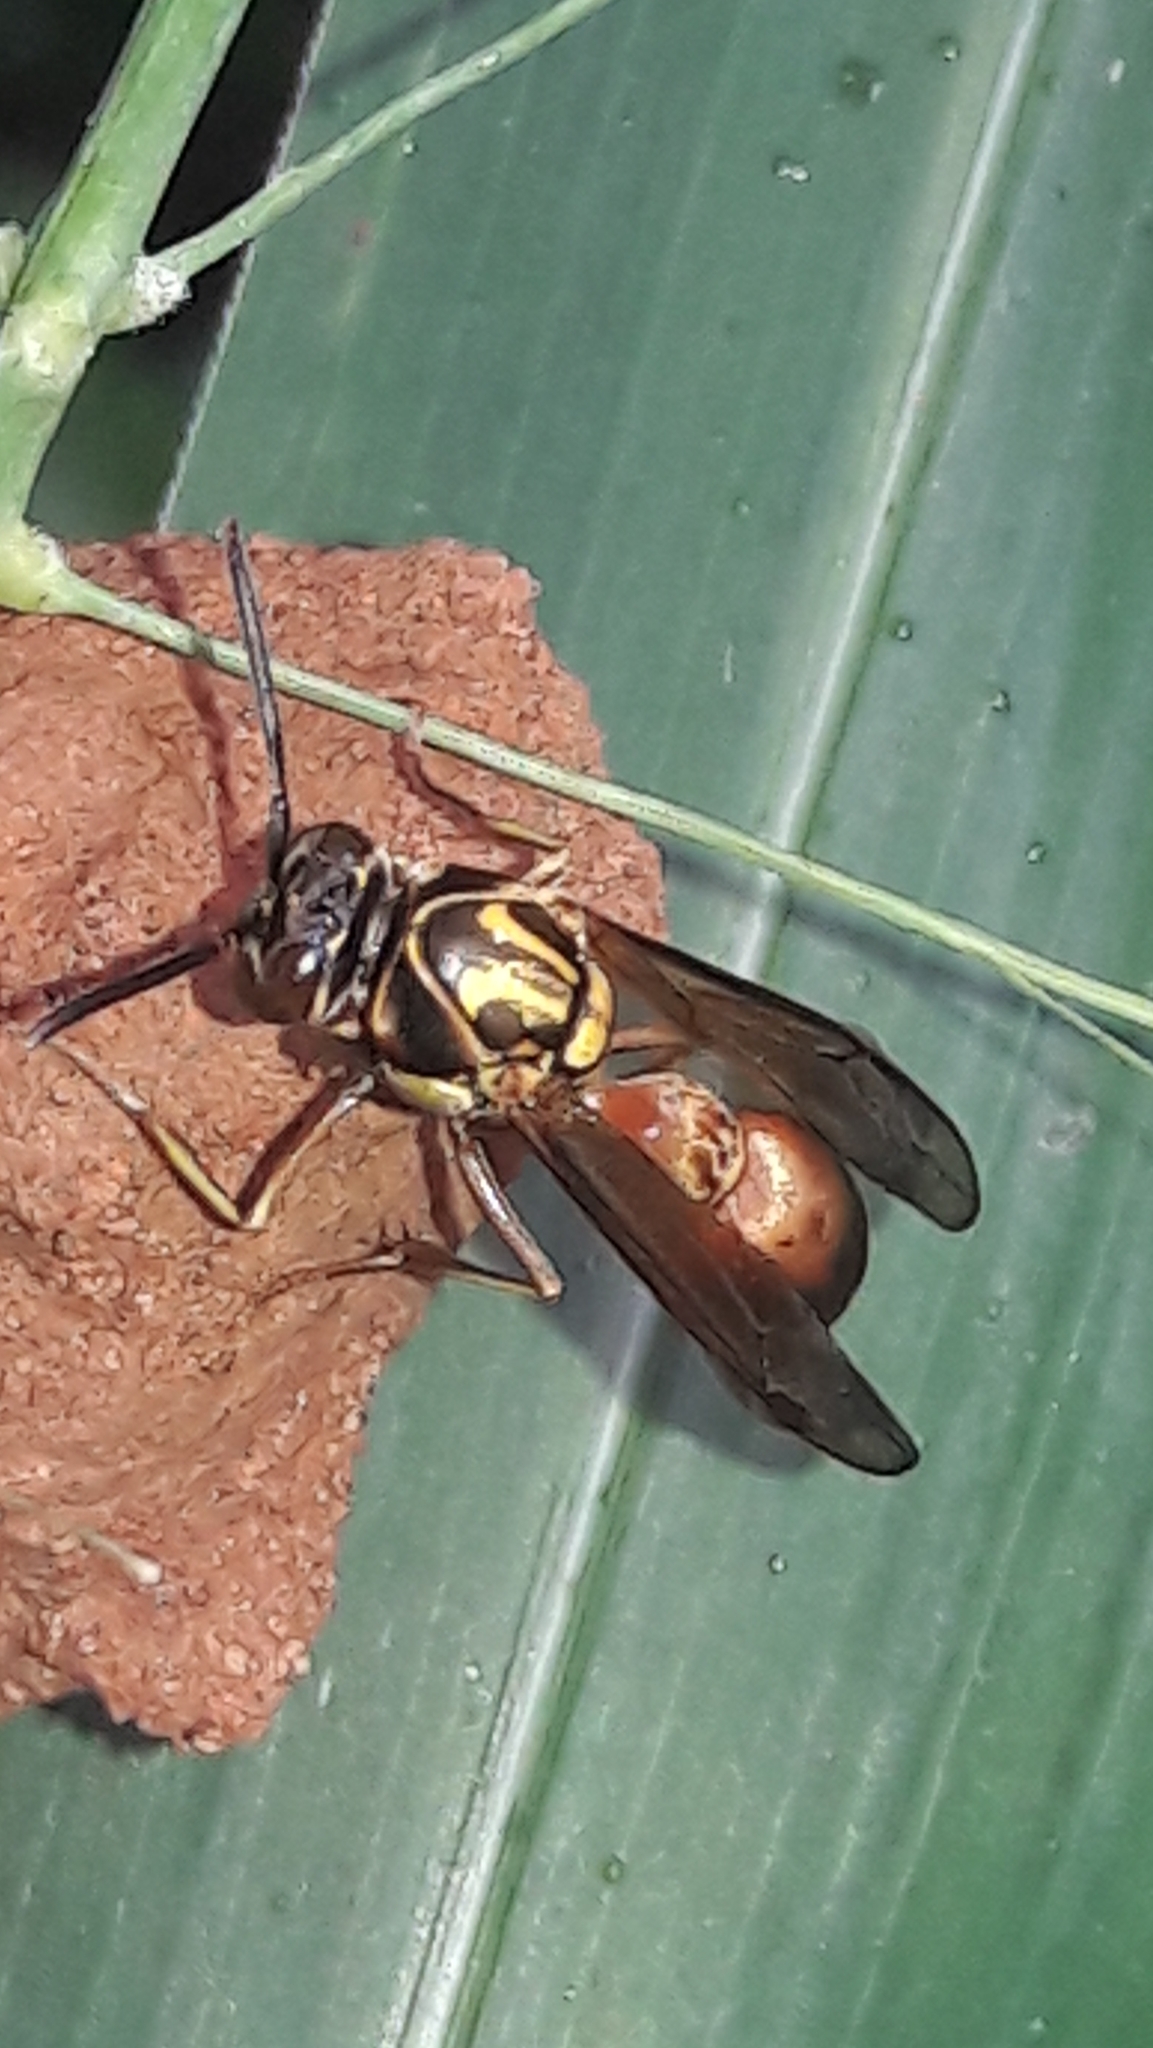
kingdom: Animalia
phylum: Arthropoda
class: Insecta
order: Hymenoptera
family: Eumenidae
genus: Pachymenes
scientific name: Pachymenes ghilianii
